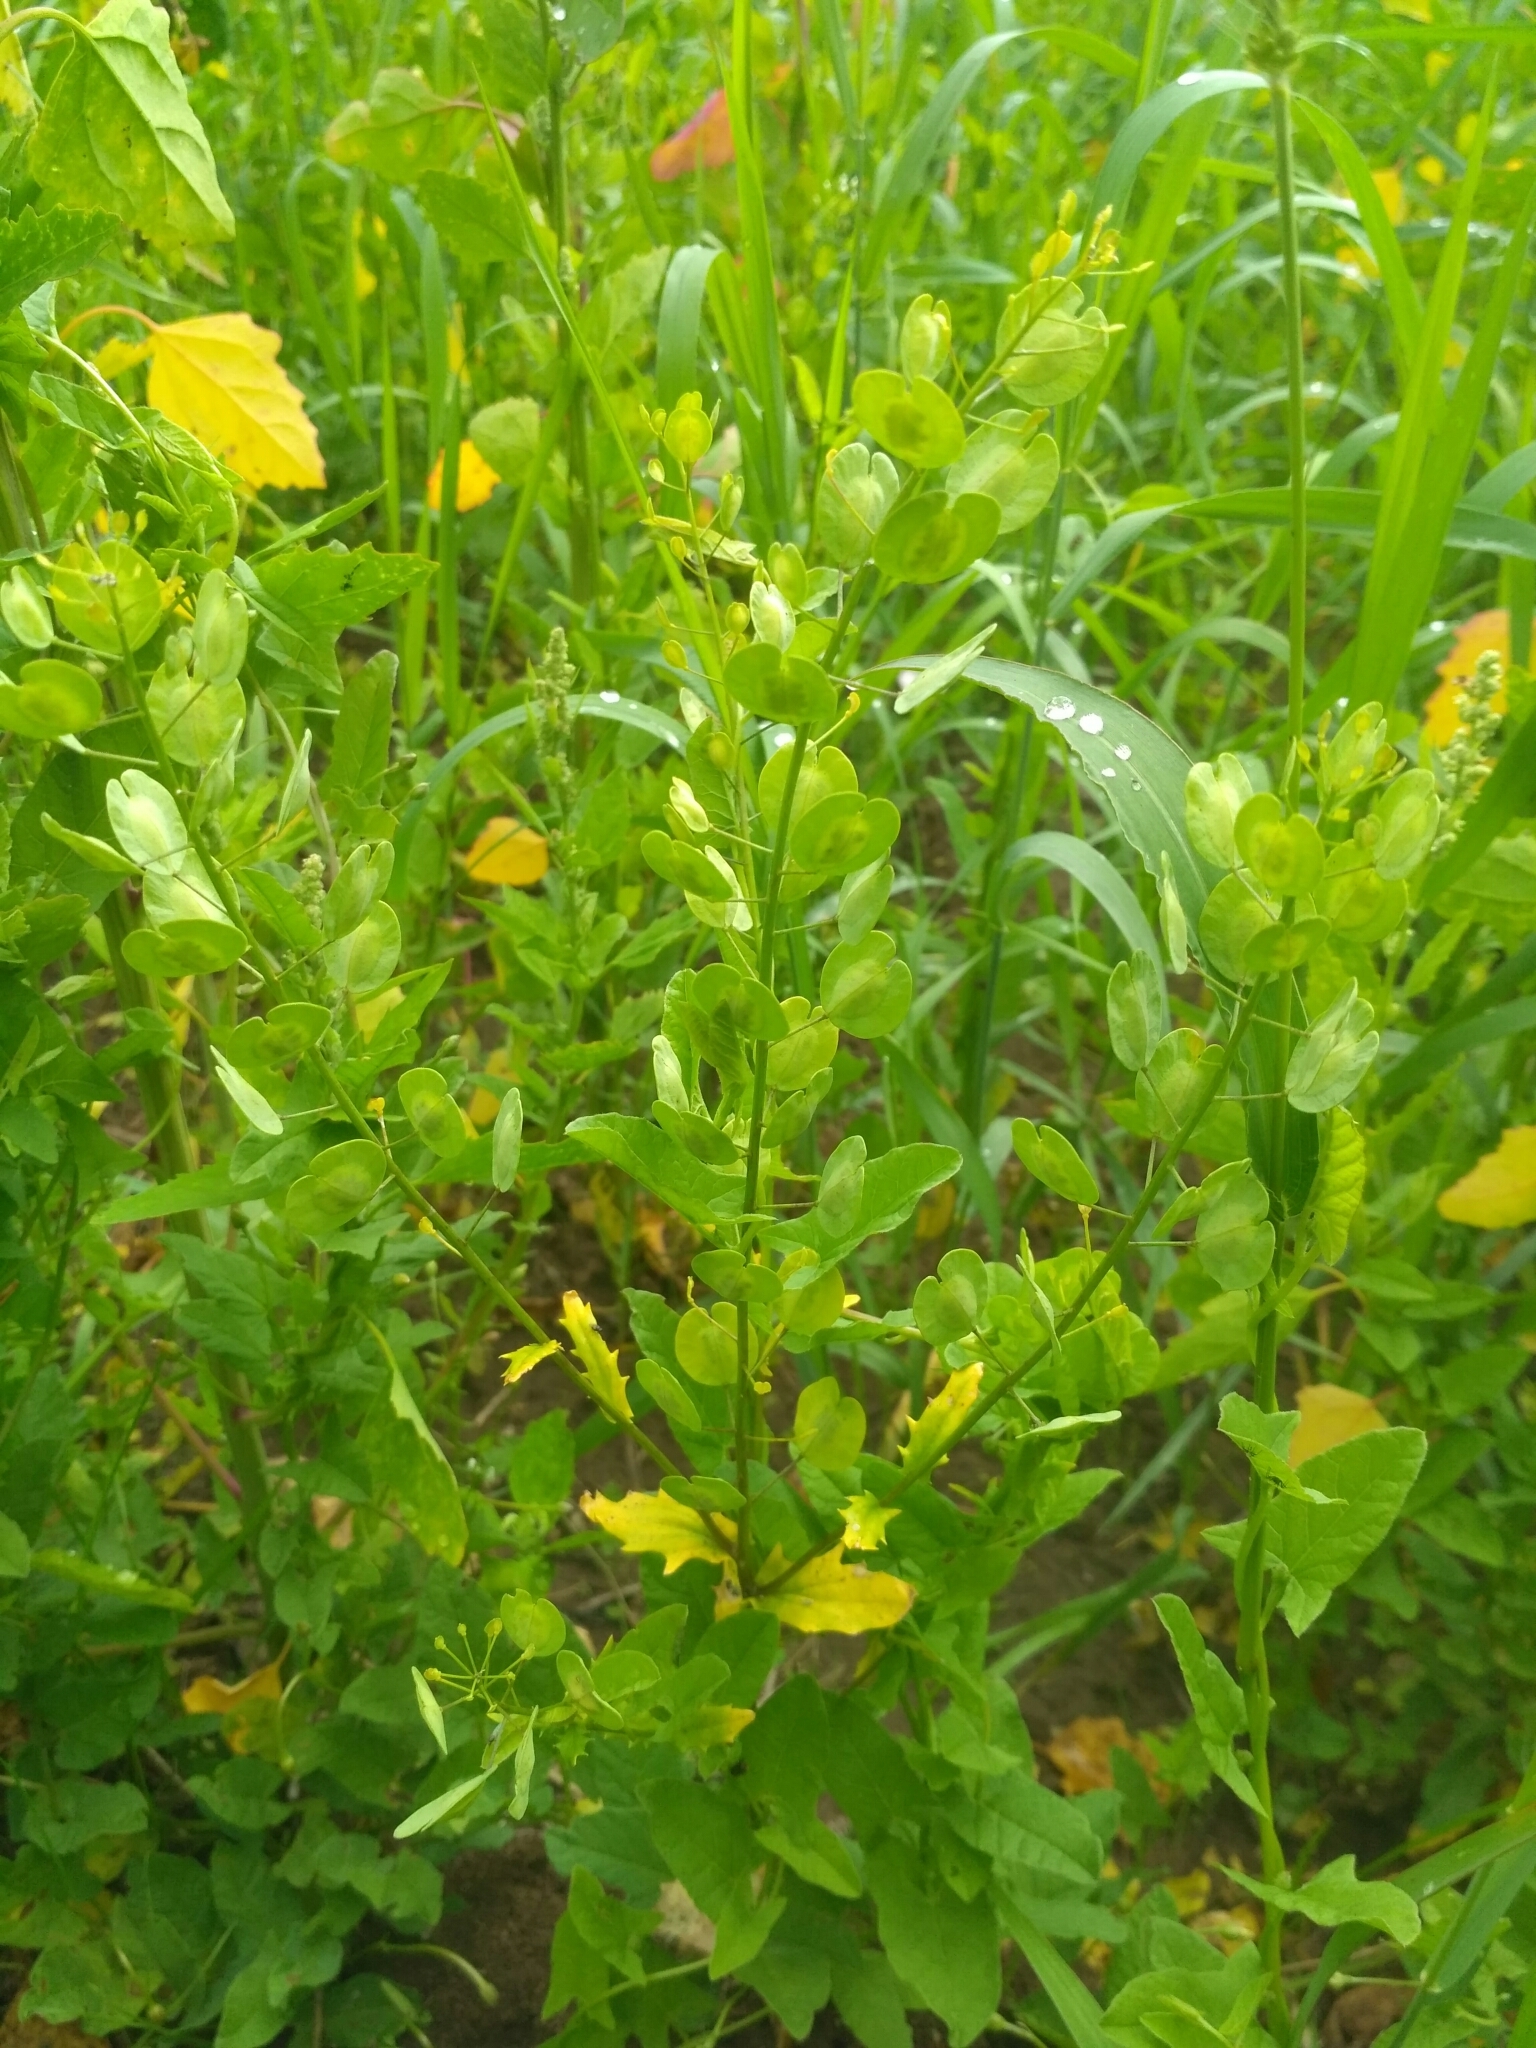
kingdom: Plantae
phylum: Tracheophyta
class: Magnoliopsida
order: Brassicales
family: Brassicaceae
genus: Thlaspi
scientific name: Thlaspi arvense
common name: Field pennycress
